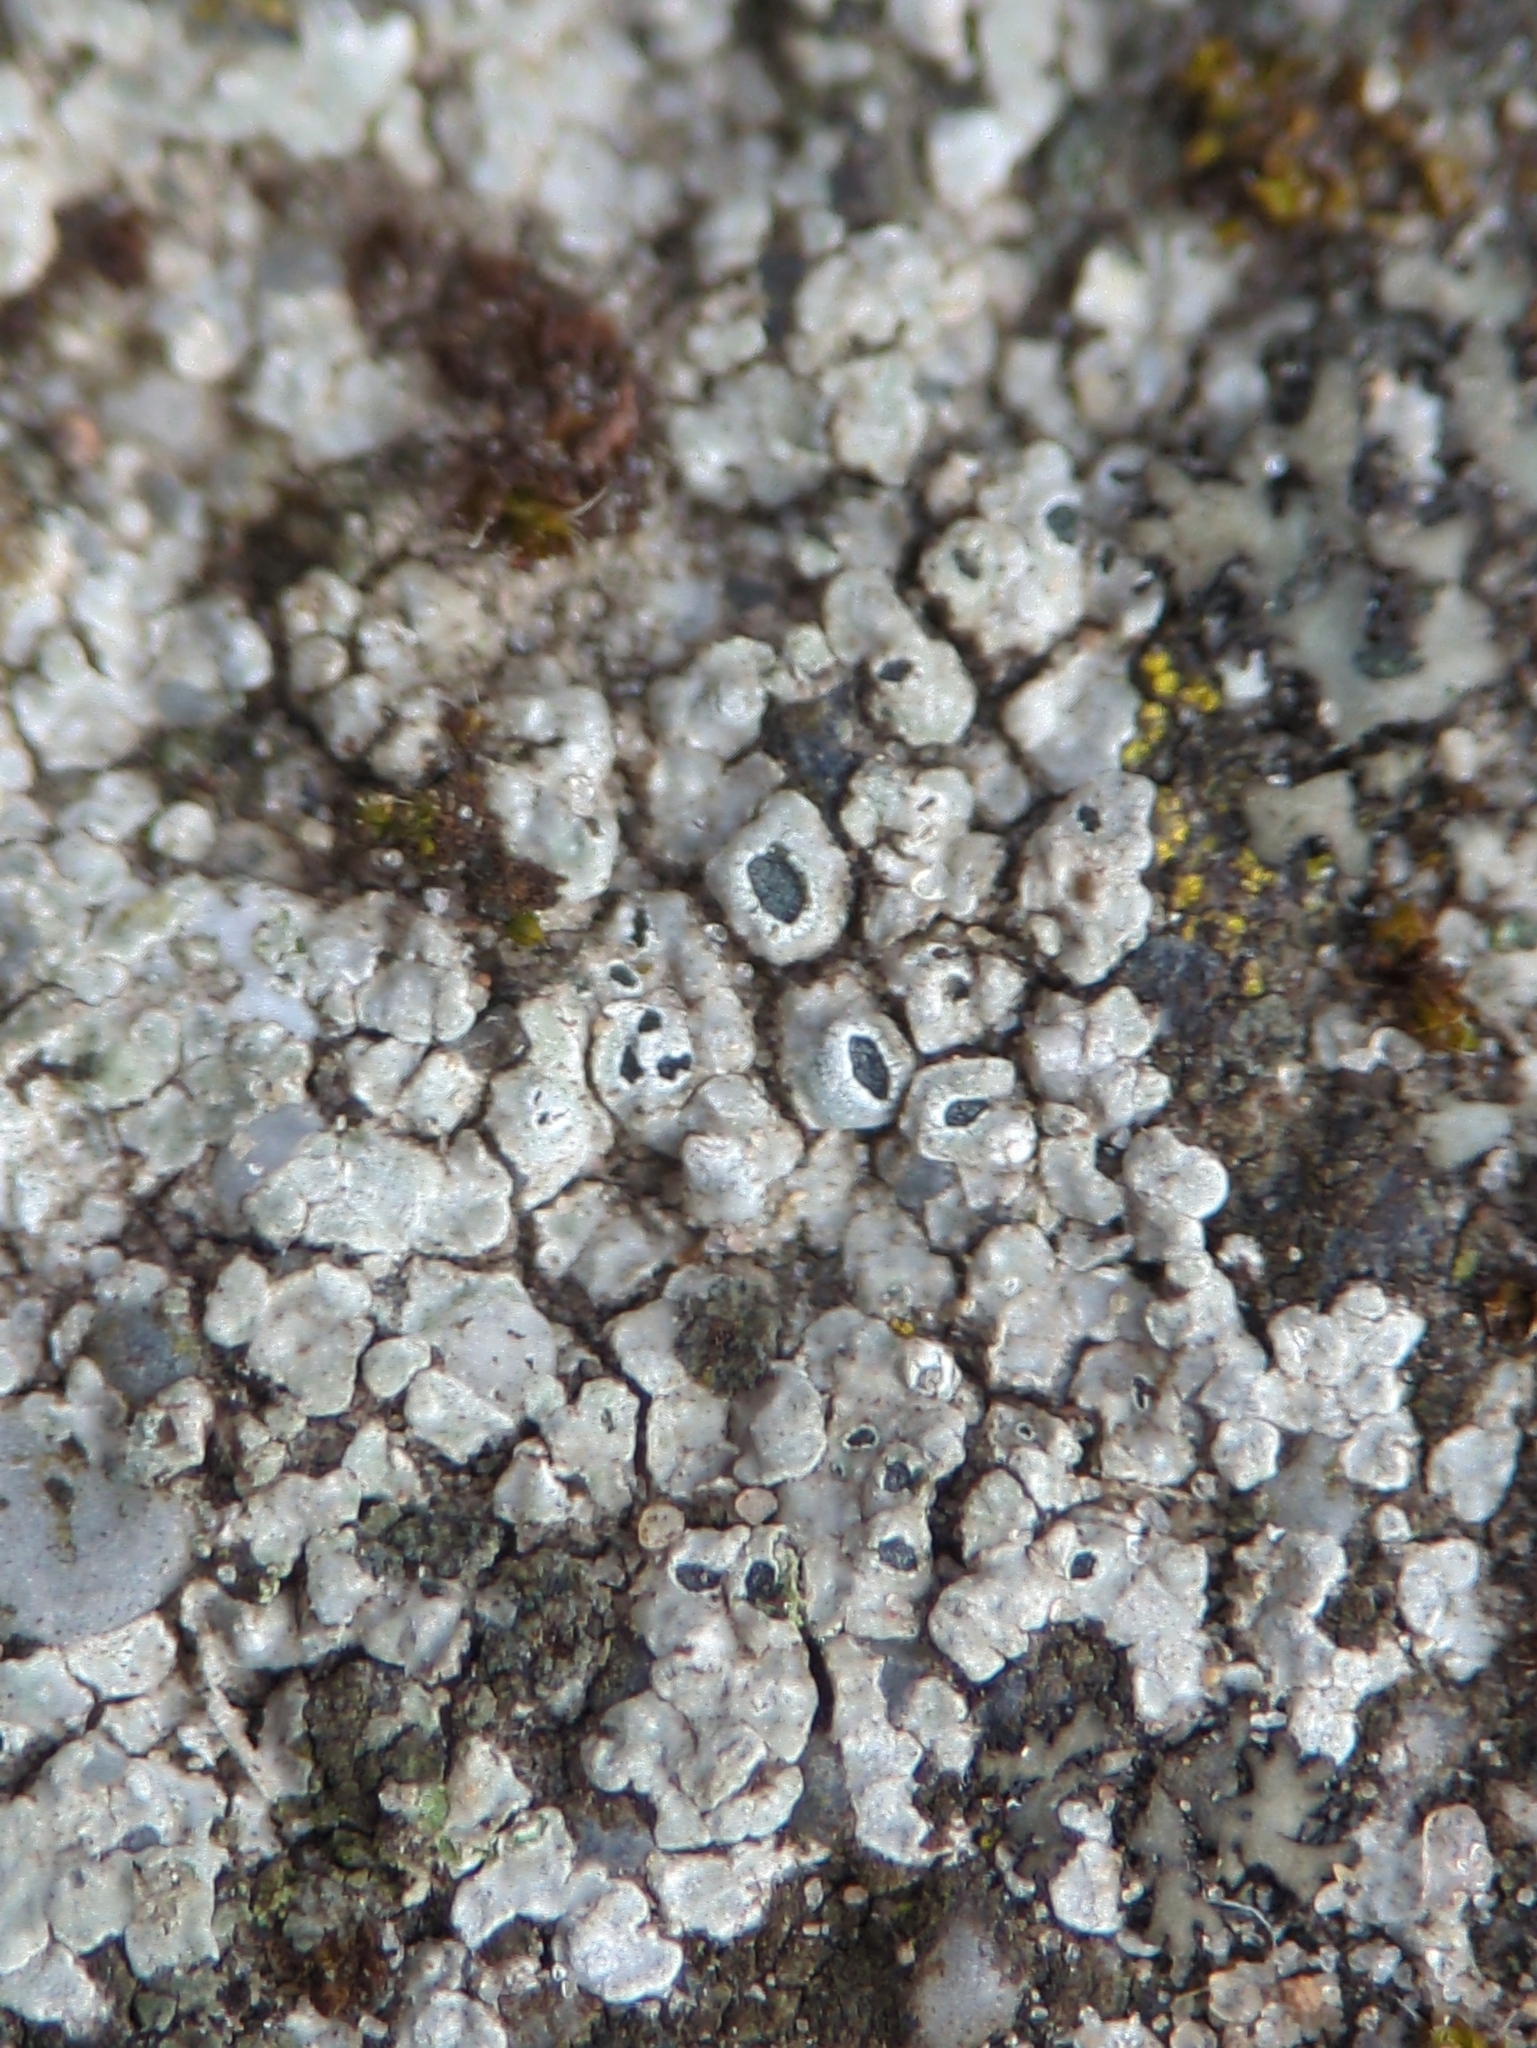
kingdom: Fungi
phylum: Ascomycota
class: Lecanoromycetes
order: Pertusariales
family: Megasporaceae
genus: Circinaria
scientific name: Circinaria contorta
